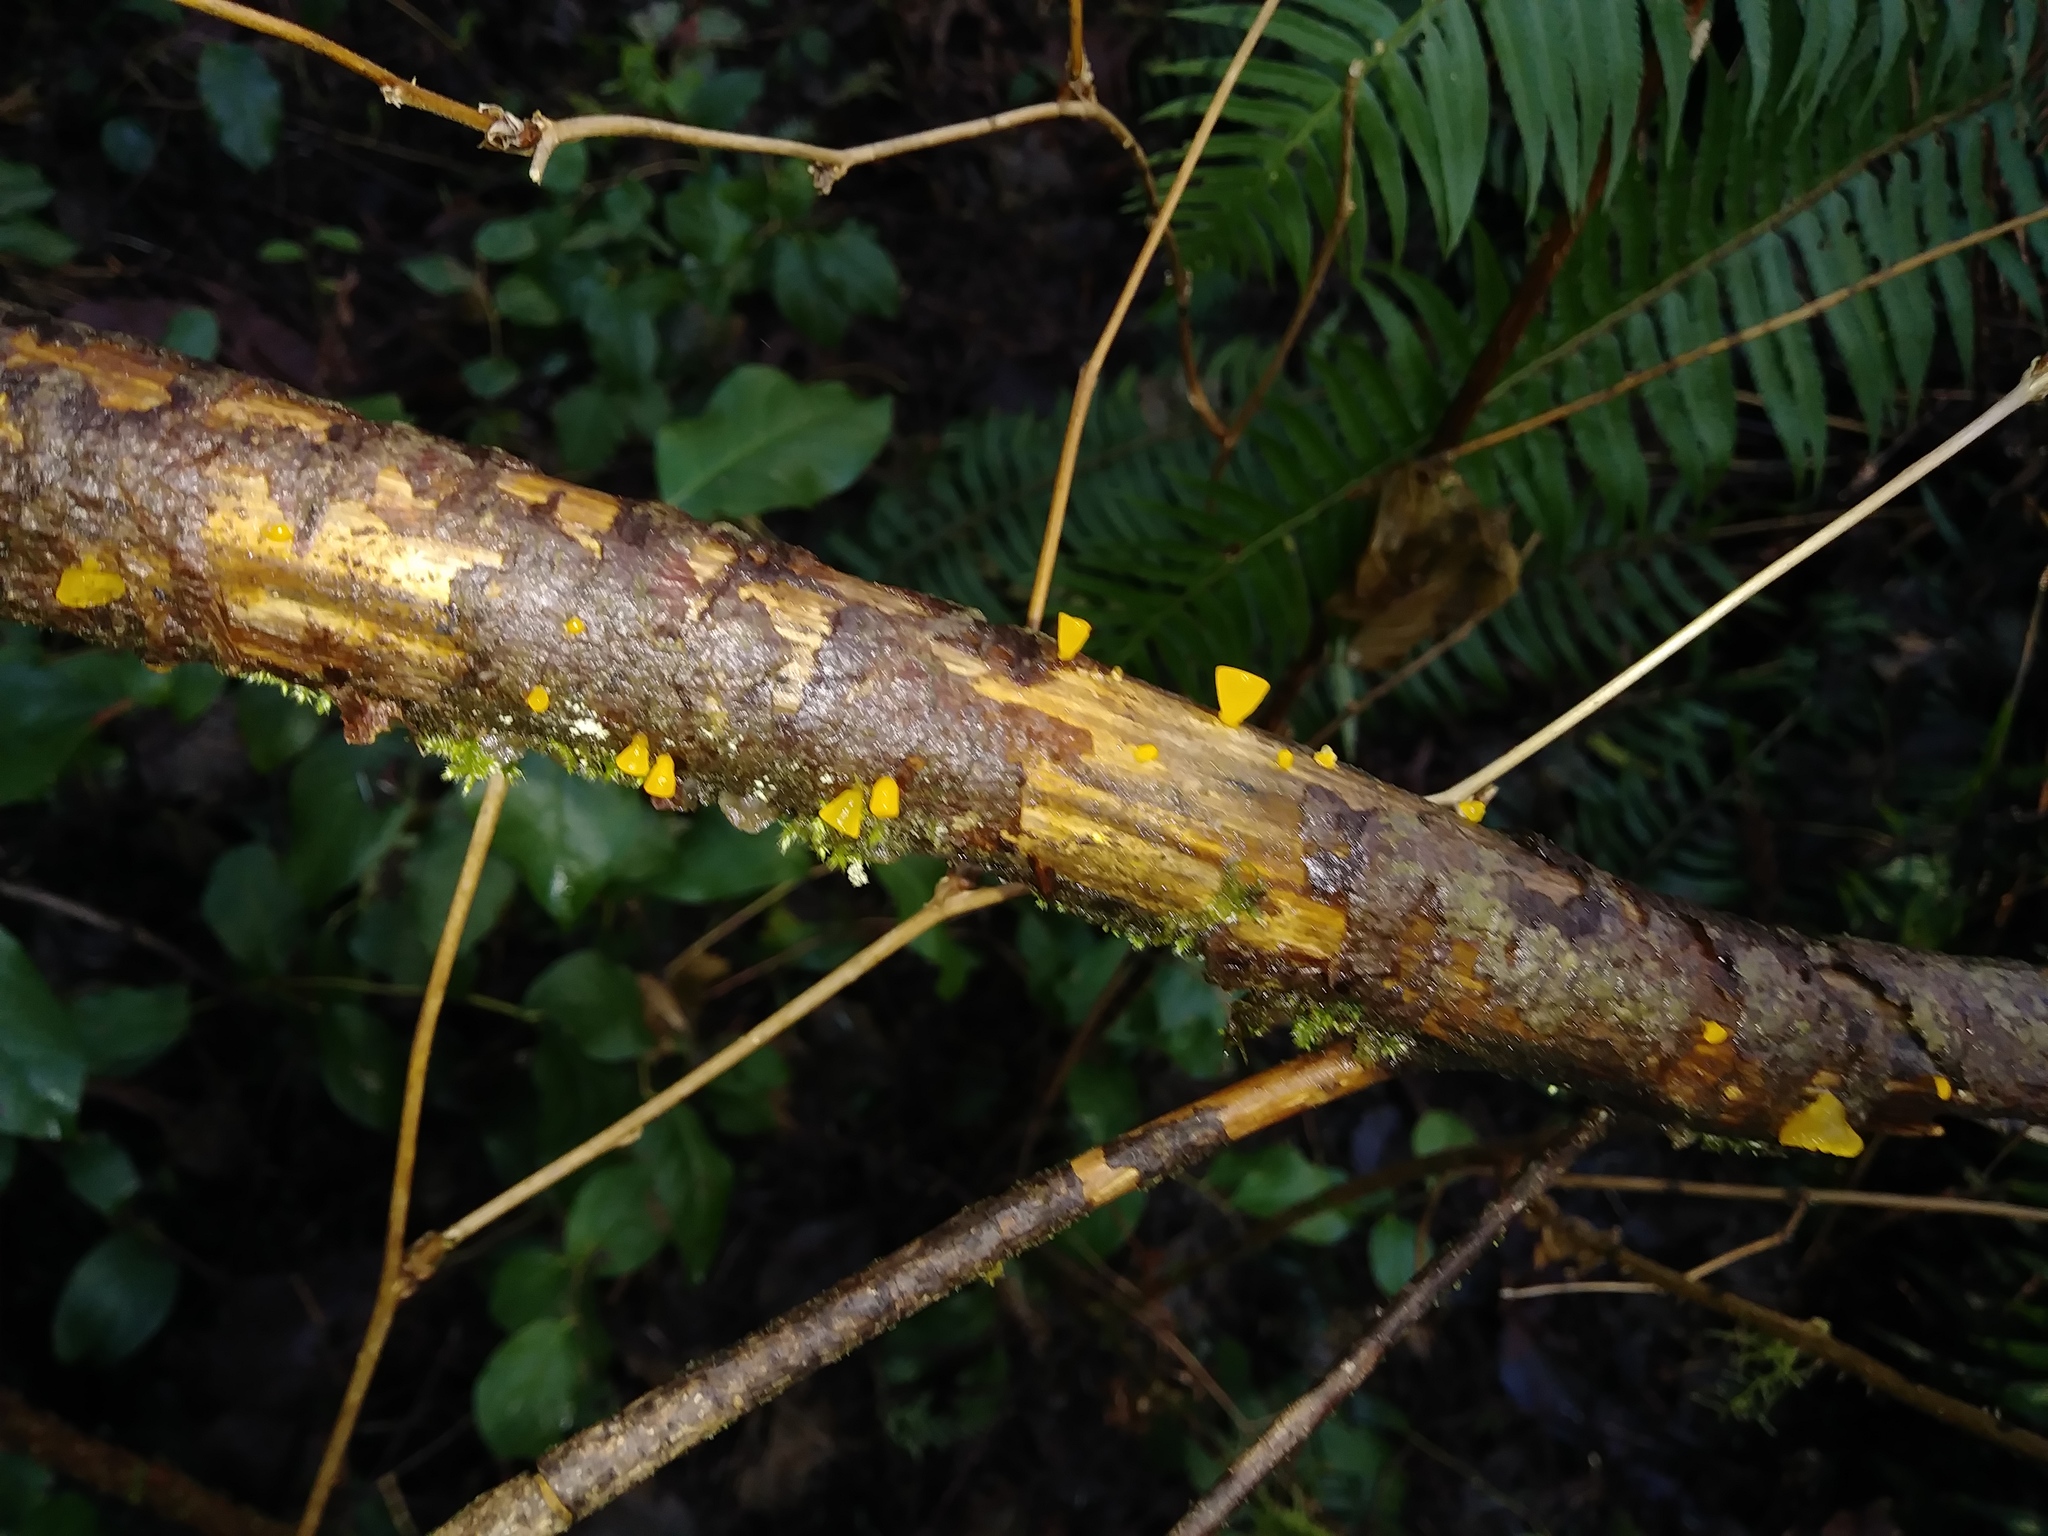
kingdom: Fungi
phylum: Basidiomycota
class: Dacrymycetes
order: Dacrymycetales
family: Dacrymycetaceae
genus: Guepiniopsis
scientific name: Guepiniopsis alpina
